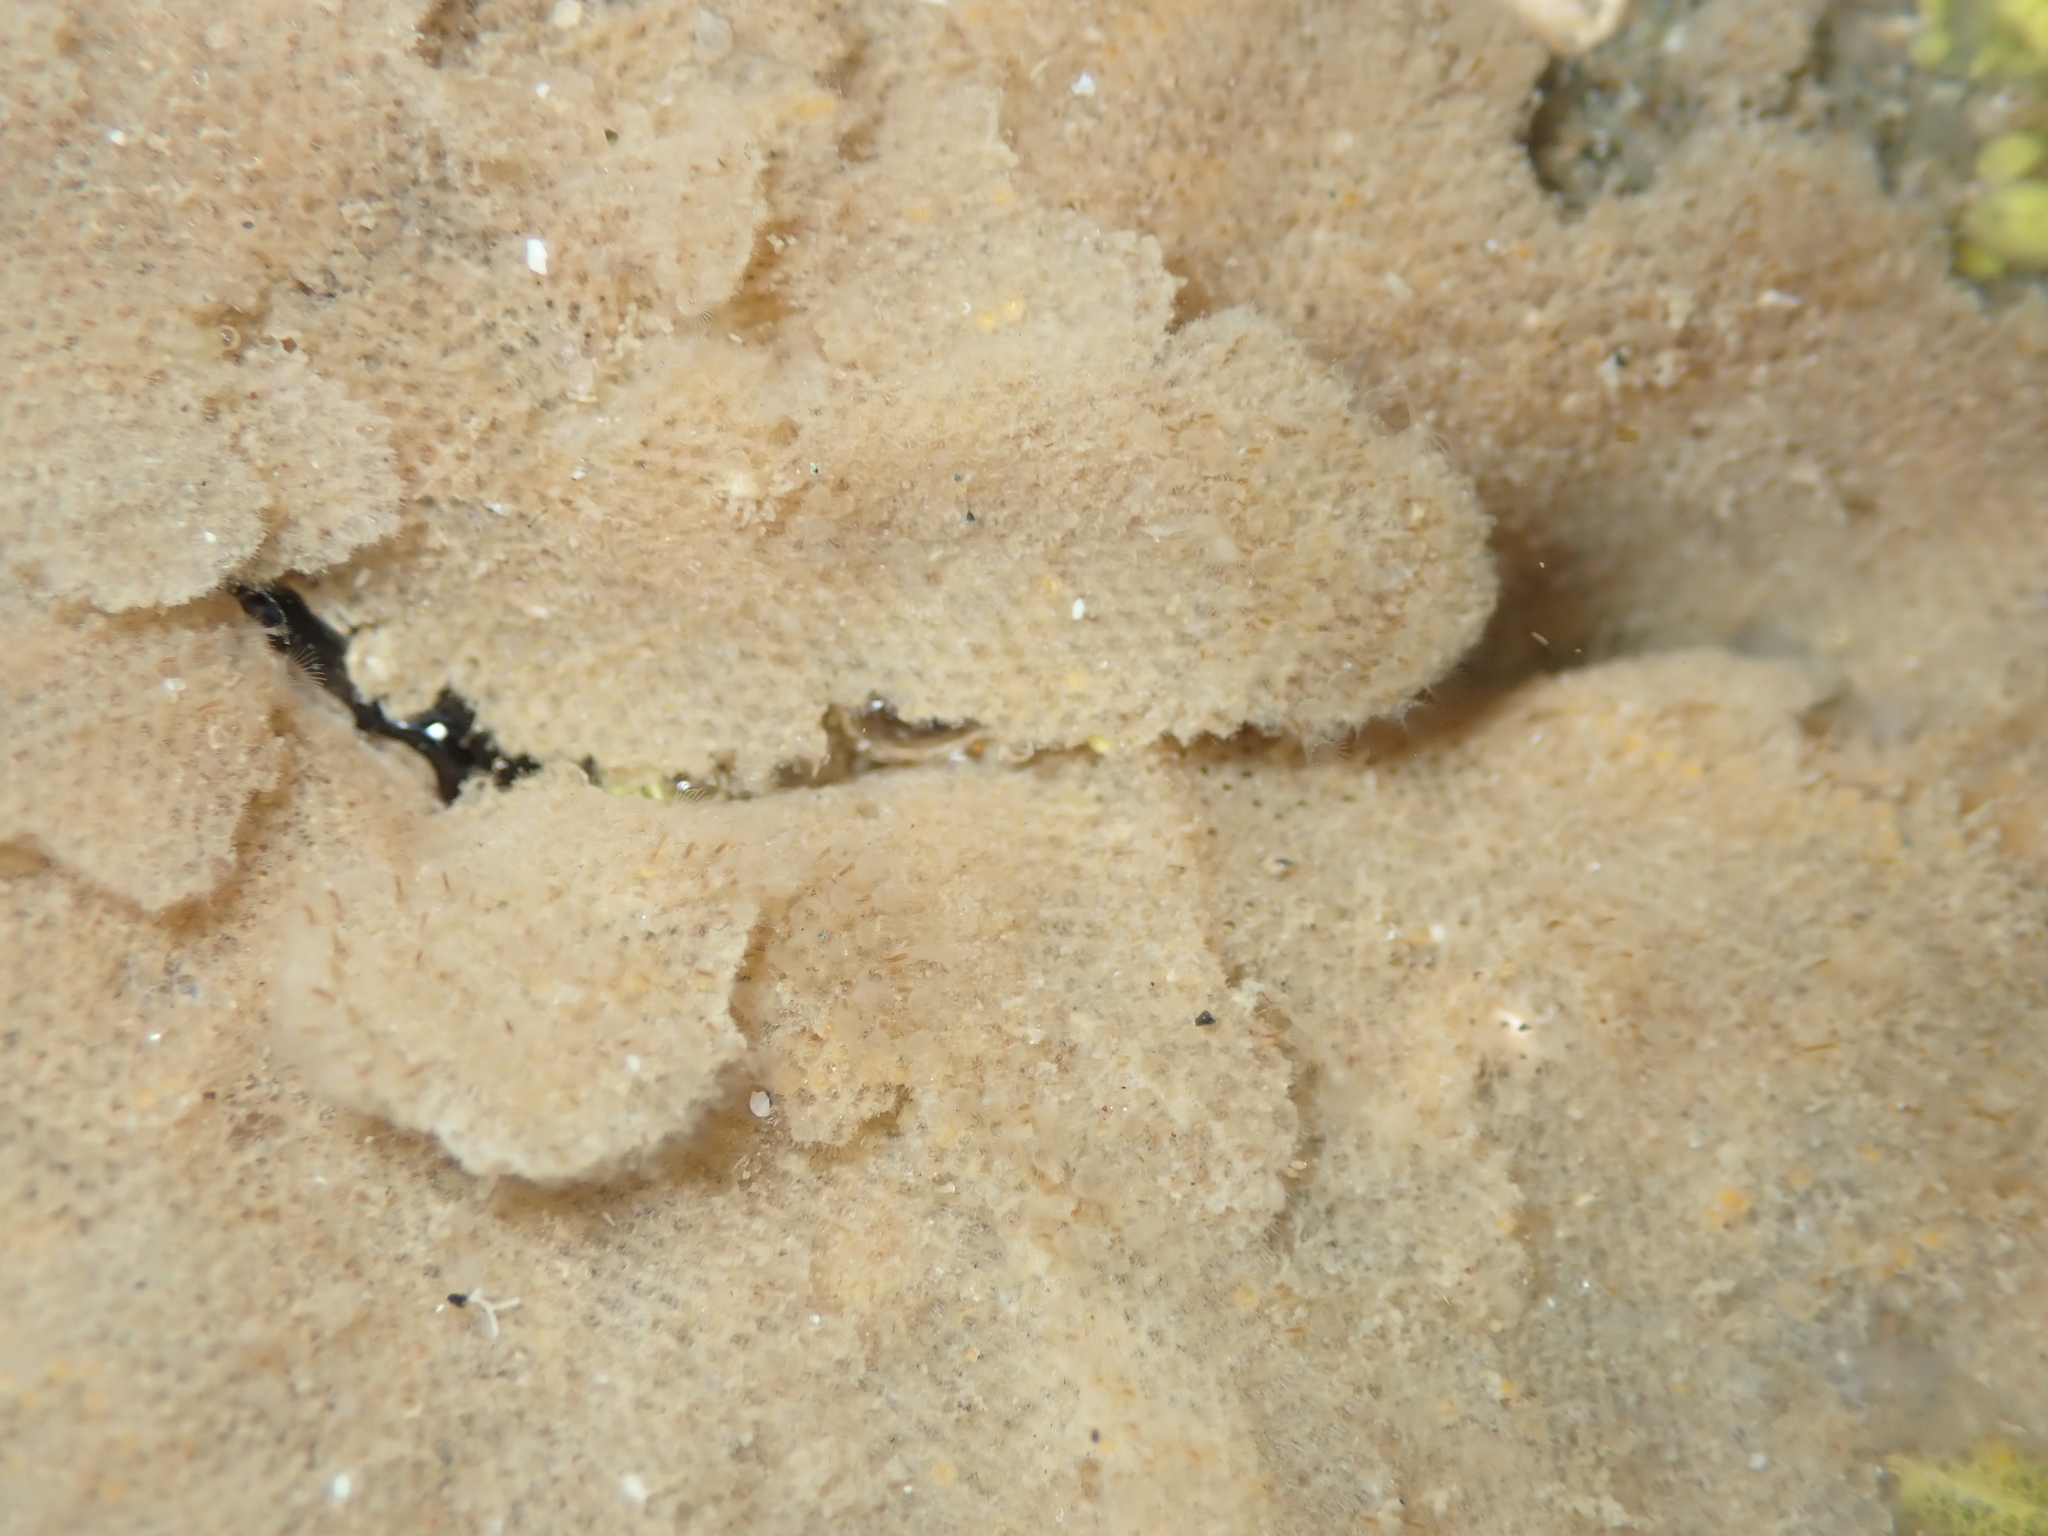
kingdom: Animalia
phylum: Bryozoa
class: Gymnolaemata
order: Cheilostomatida
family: Beaniidae
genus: Beania
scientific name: Beania magellanica
